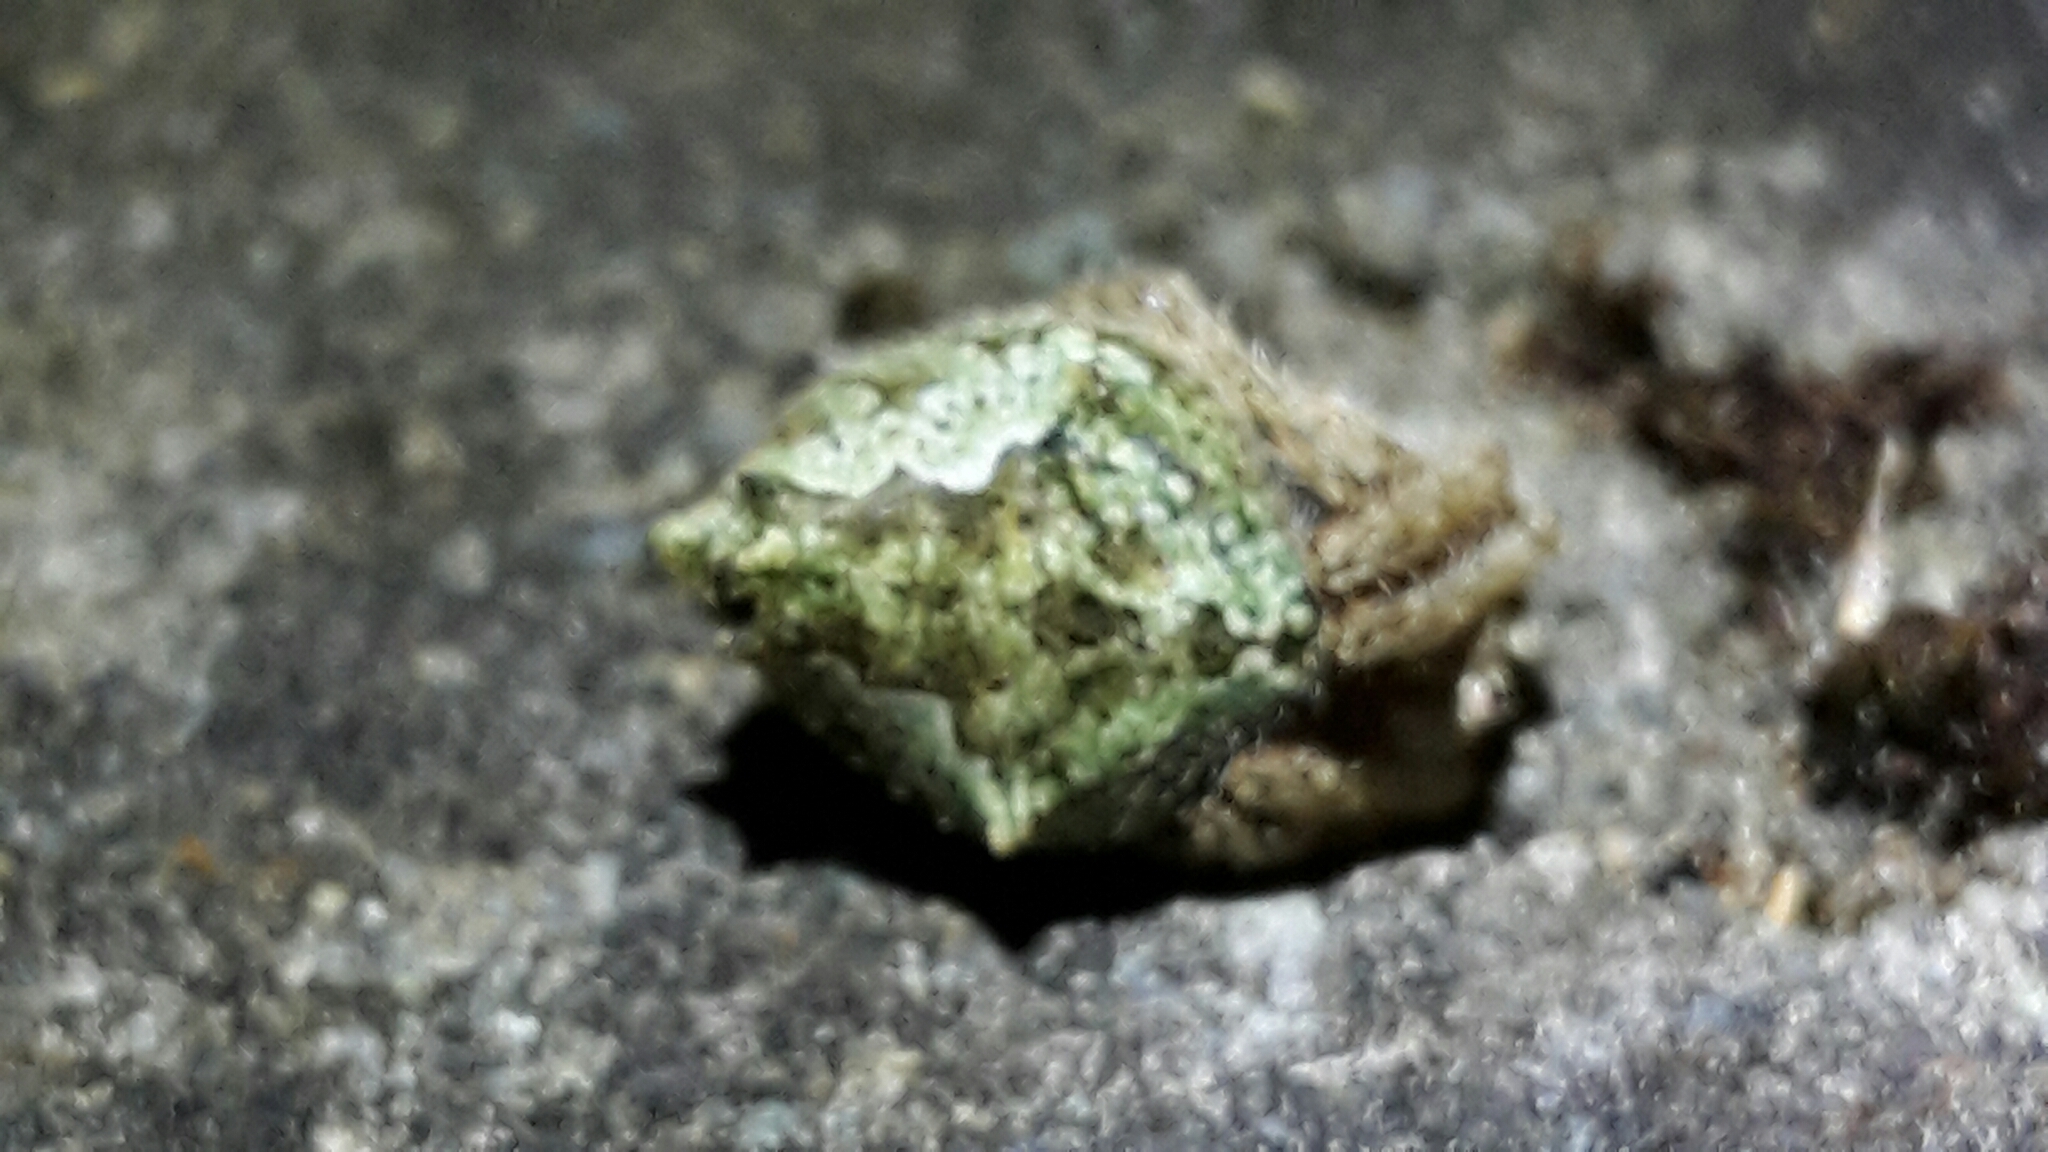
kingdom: Animalia
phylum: Arthropoda
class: Arachnida
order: Araneae
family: Araneidae
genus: Eriophora
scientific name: Eriophora pustulosa
